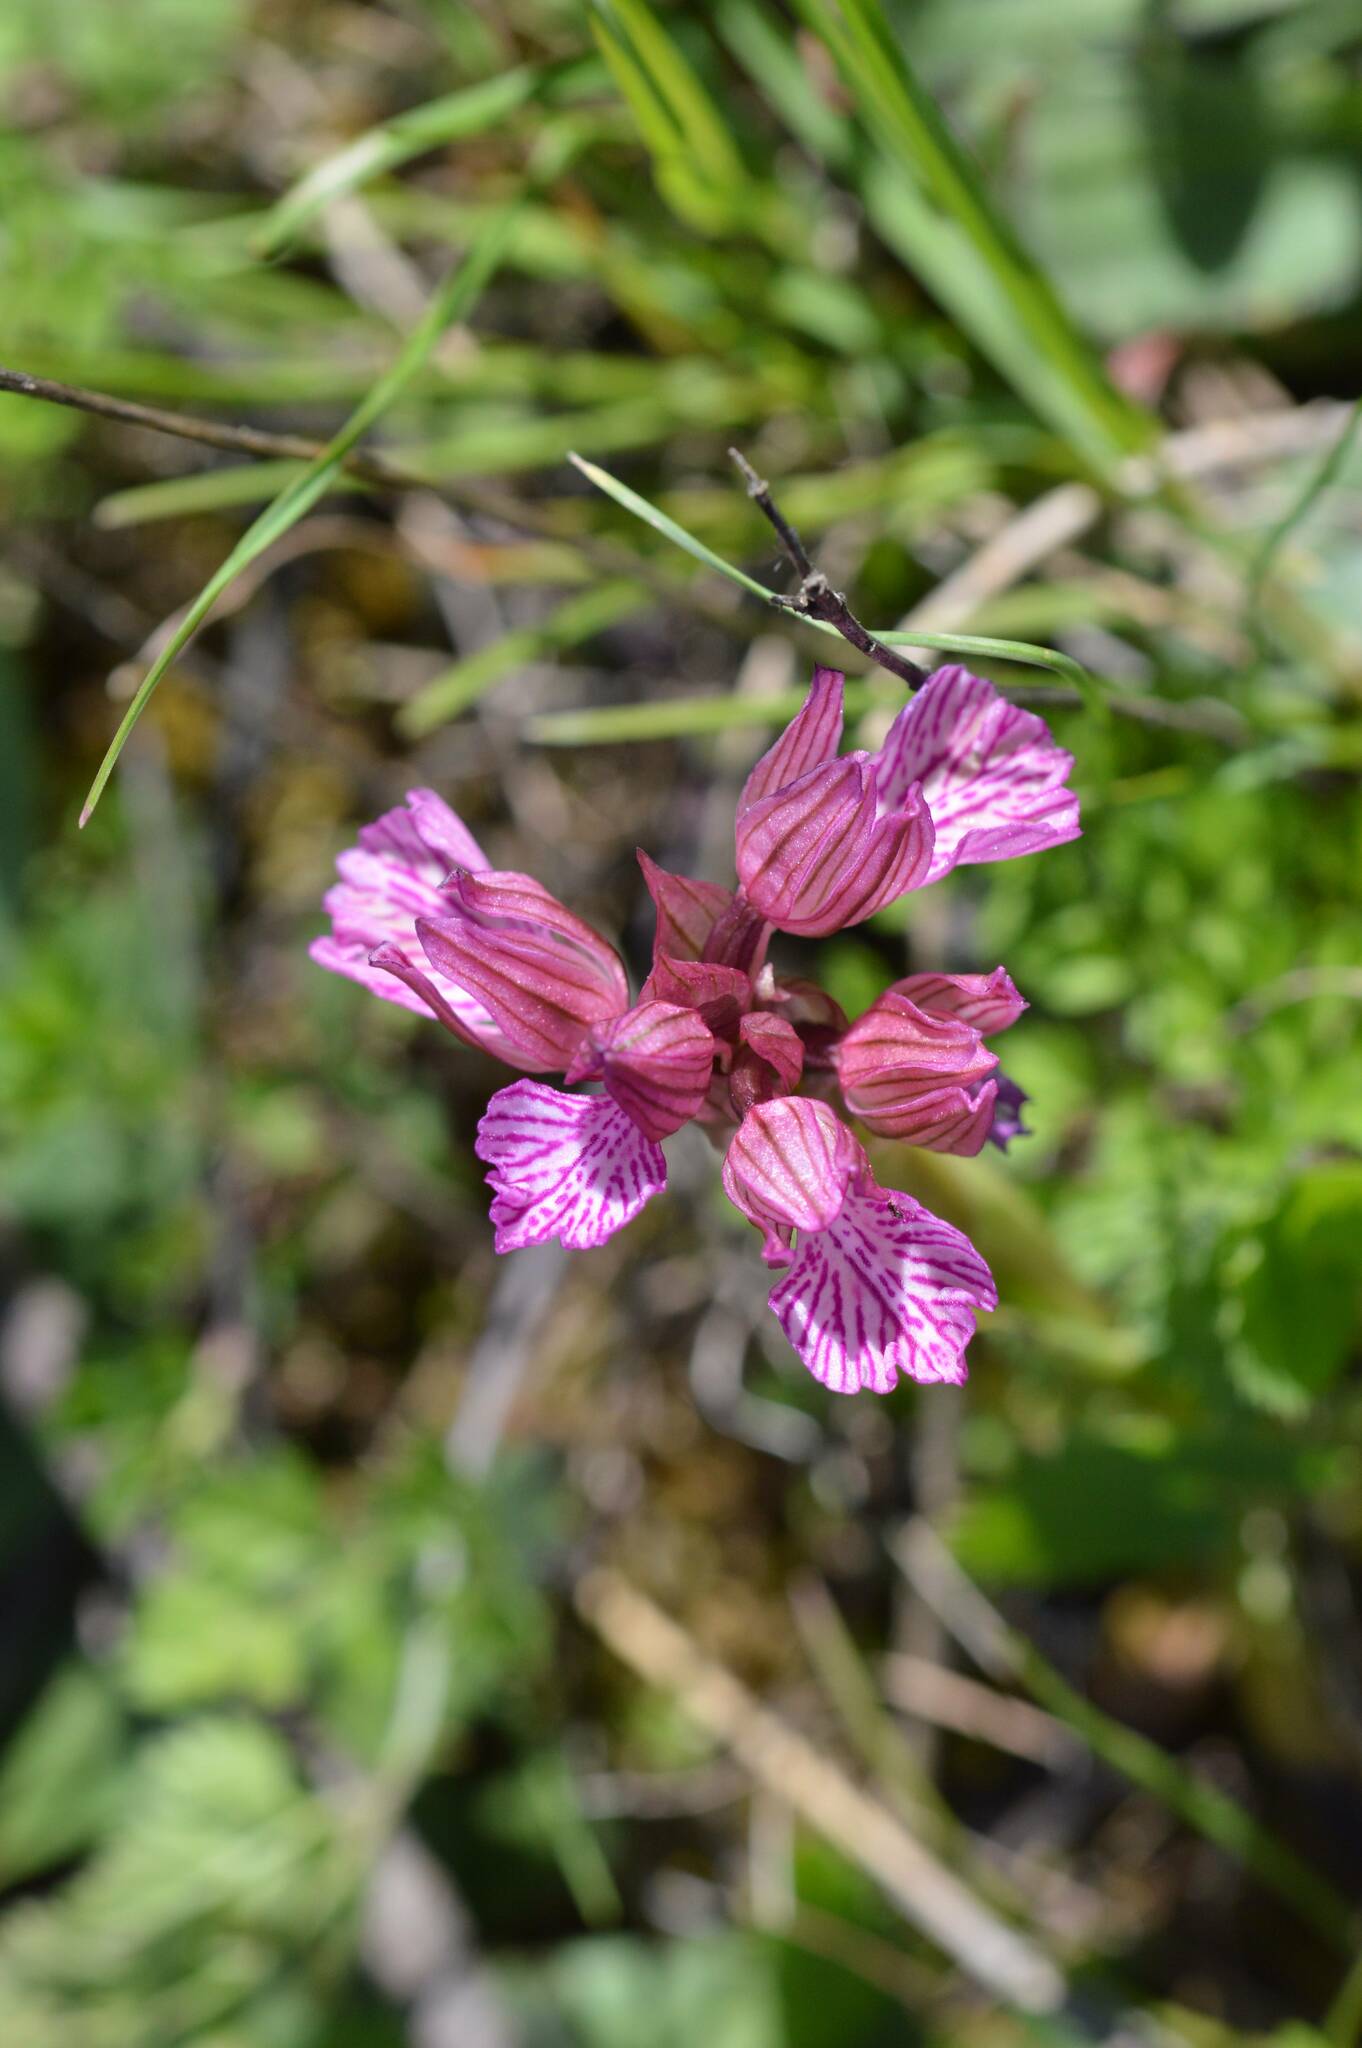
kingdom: Plantae
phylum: Tracheophyta
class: Liliopsida
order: Asparagales
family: Orchidaceae
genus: Anacamptis
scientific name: Anacamptis papilionacea
